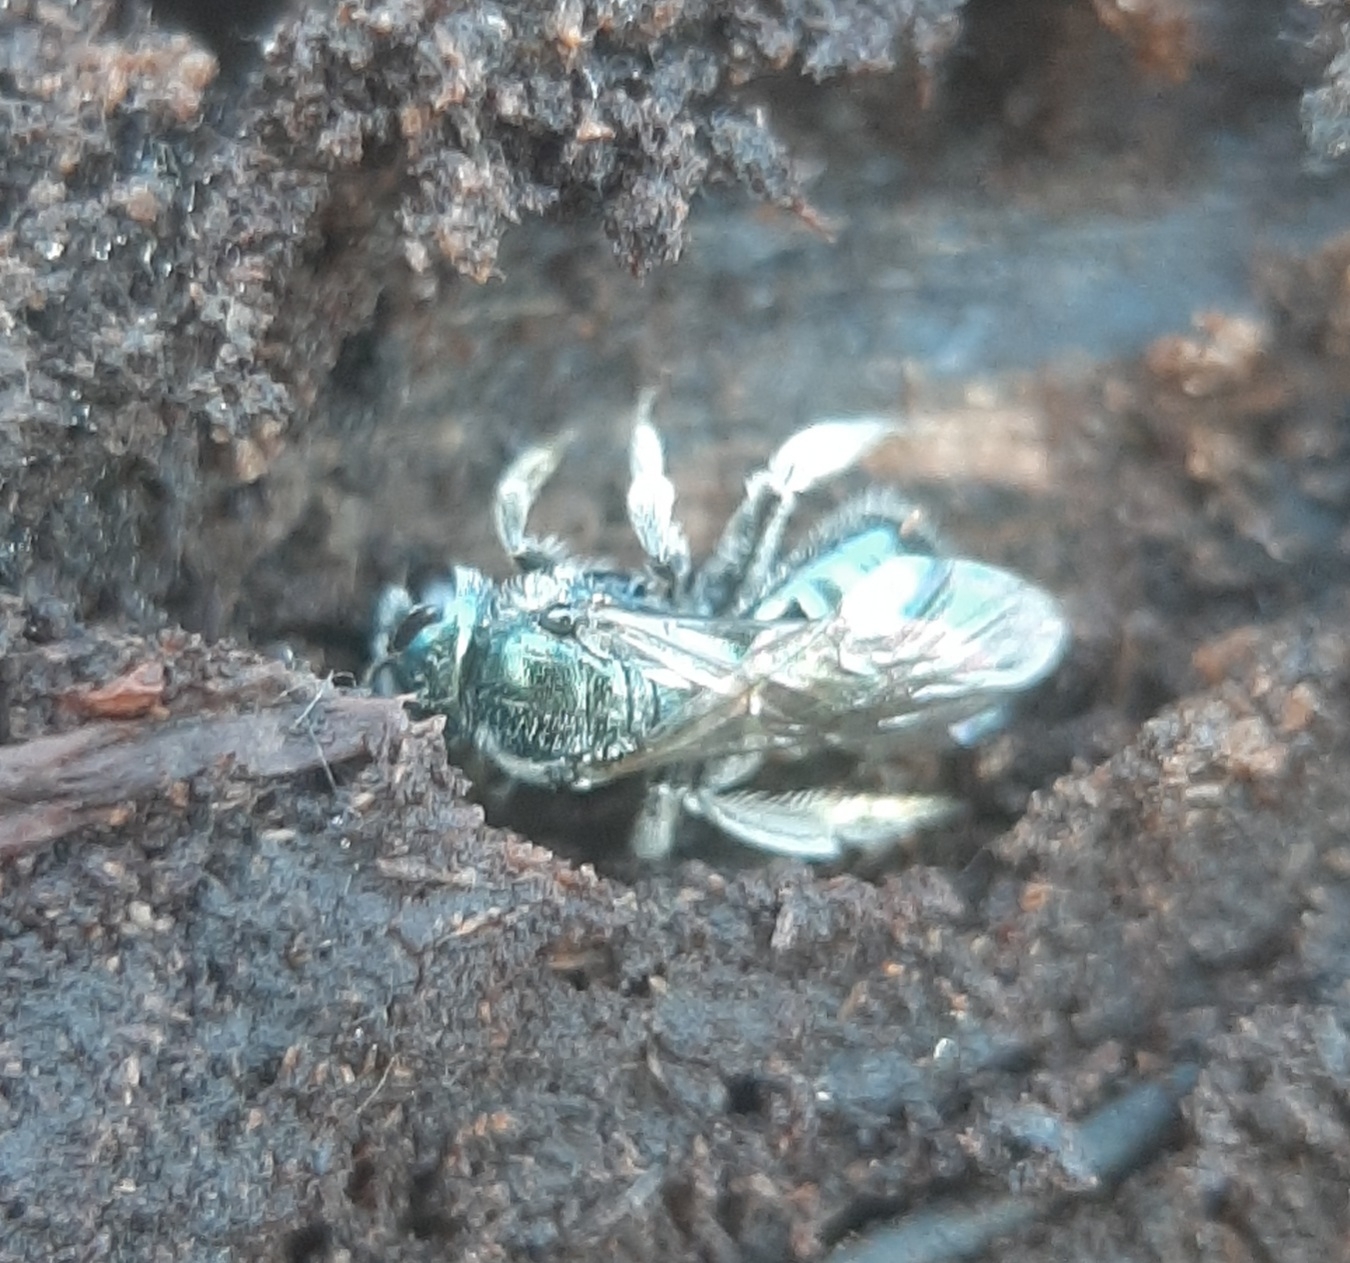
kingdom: Animalia
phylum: Arthropoda
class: Insecta
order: Hymenoptera
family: Halictidae
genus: Lasioglossum
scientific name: Lasioglossum coeruleum
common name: Deep-blue sweat bee
